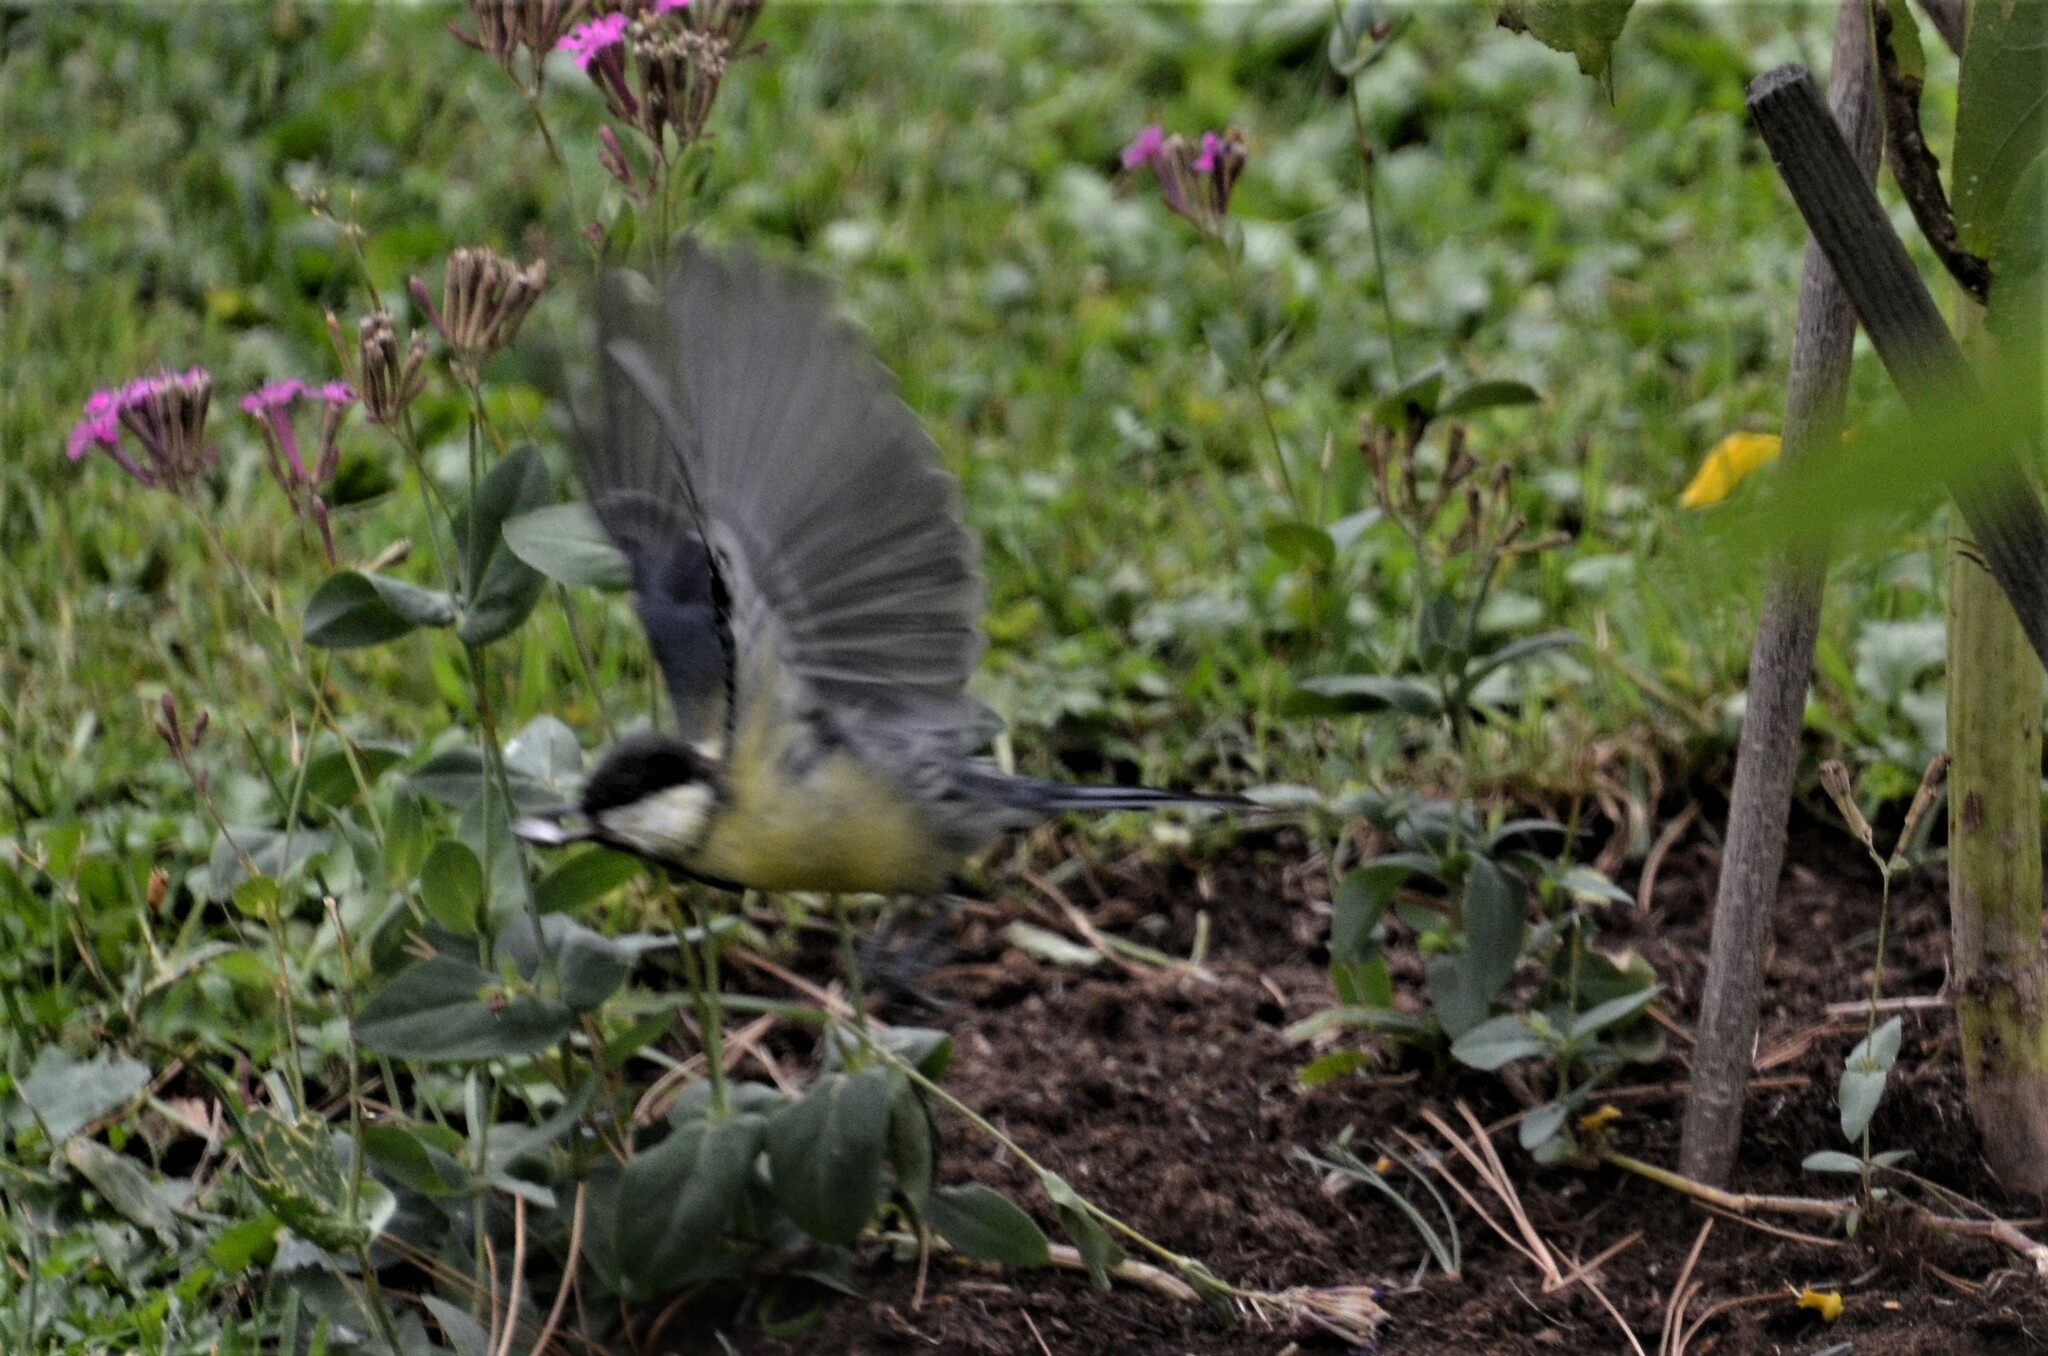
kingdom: Animalia
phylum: Chordata
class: Aves
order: Passeriformes
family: Paridae
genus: Parus
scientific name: Parus major
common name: Great tit
